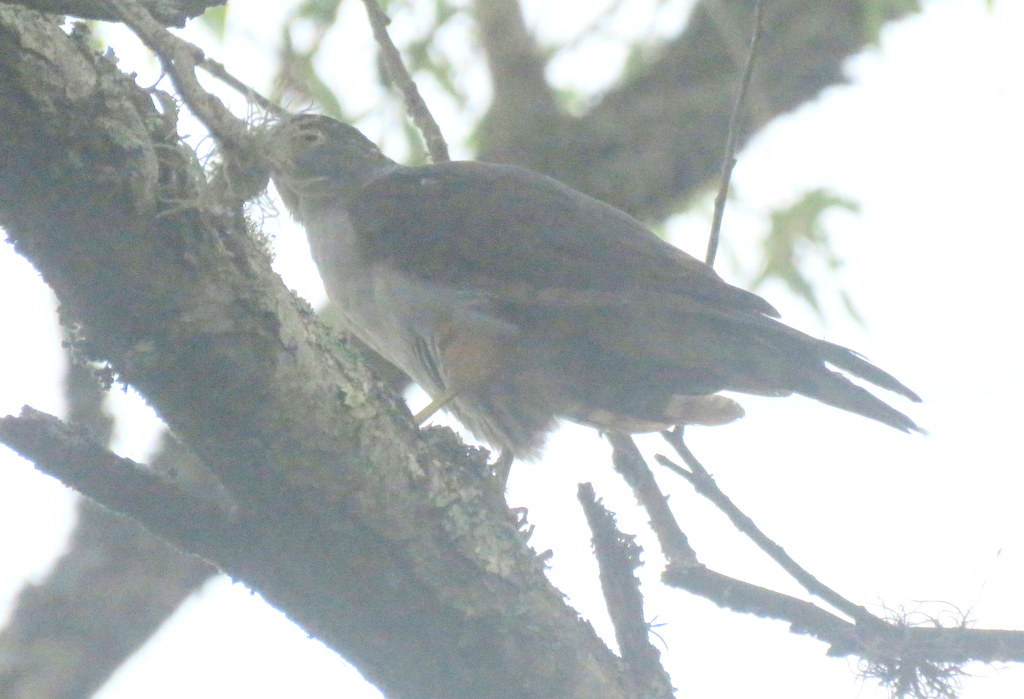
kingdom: Animalia
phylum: Chordata
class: Aves
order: Accipitriformes
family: Accipitridae
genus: Accipiter
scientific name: Accipiter bicolor
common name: Bicolored hawk
